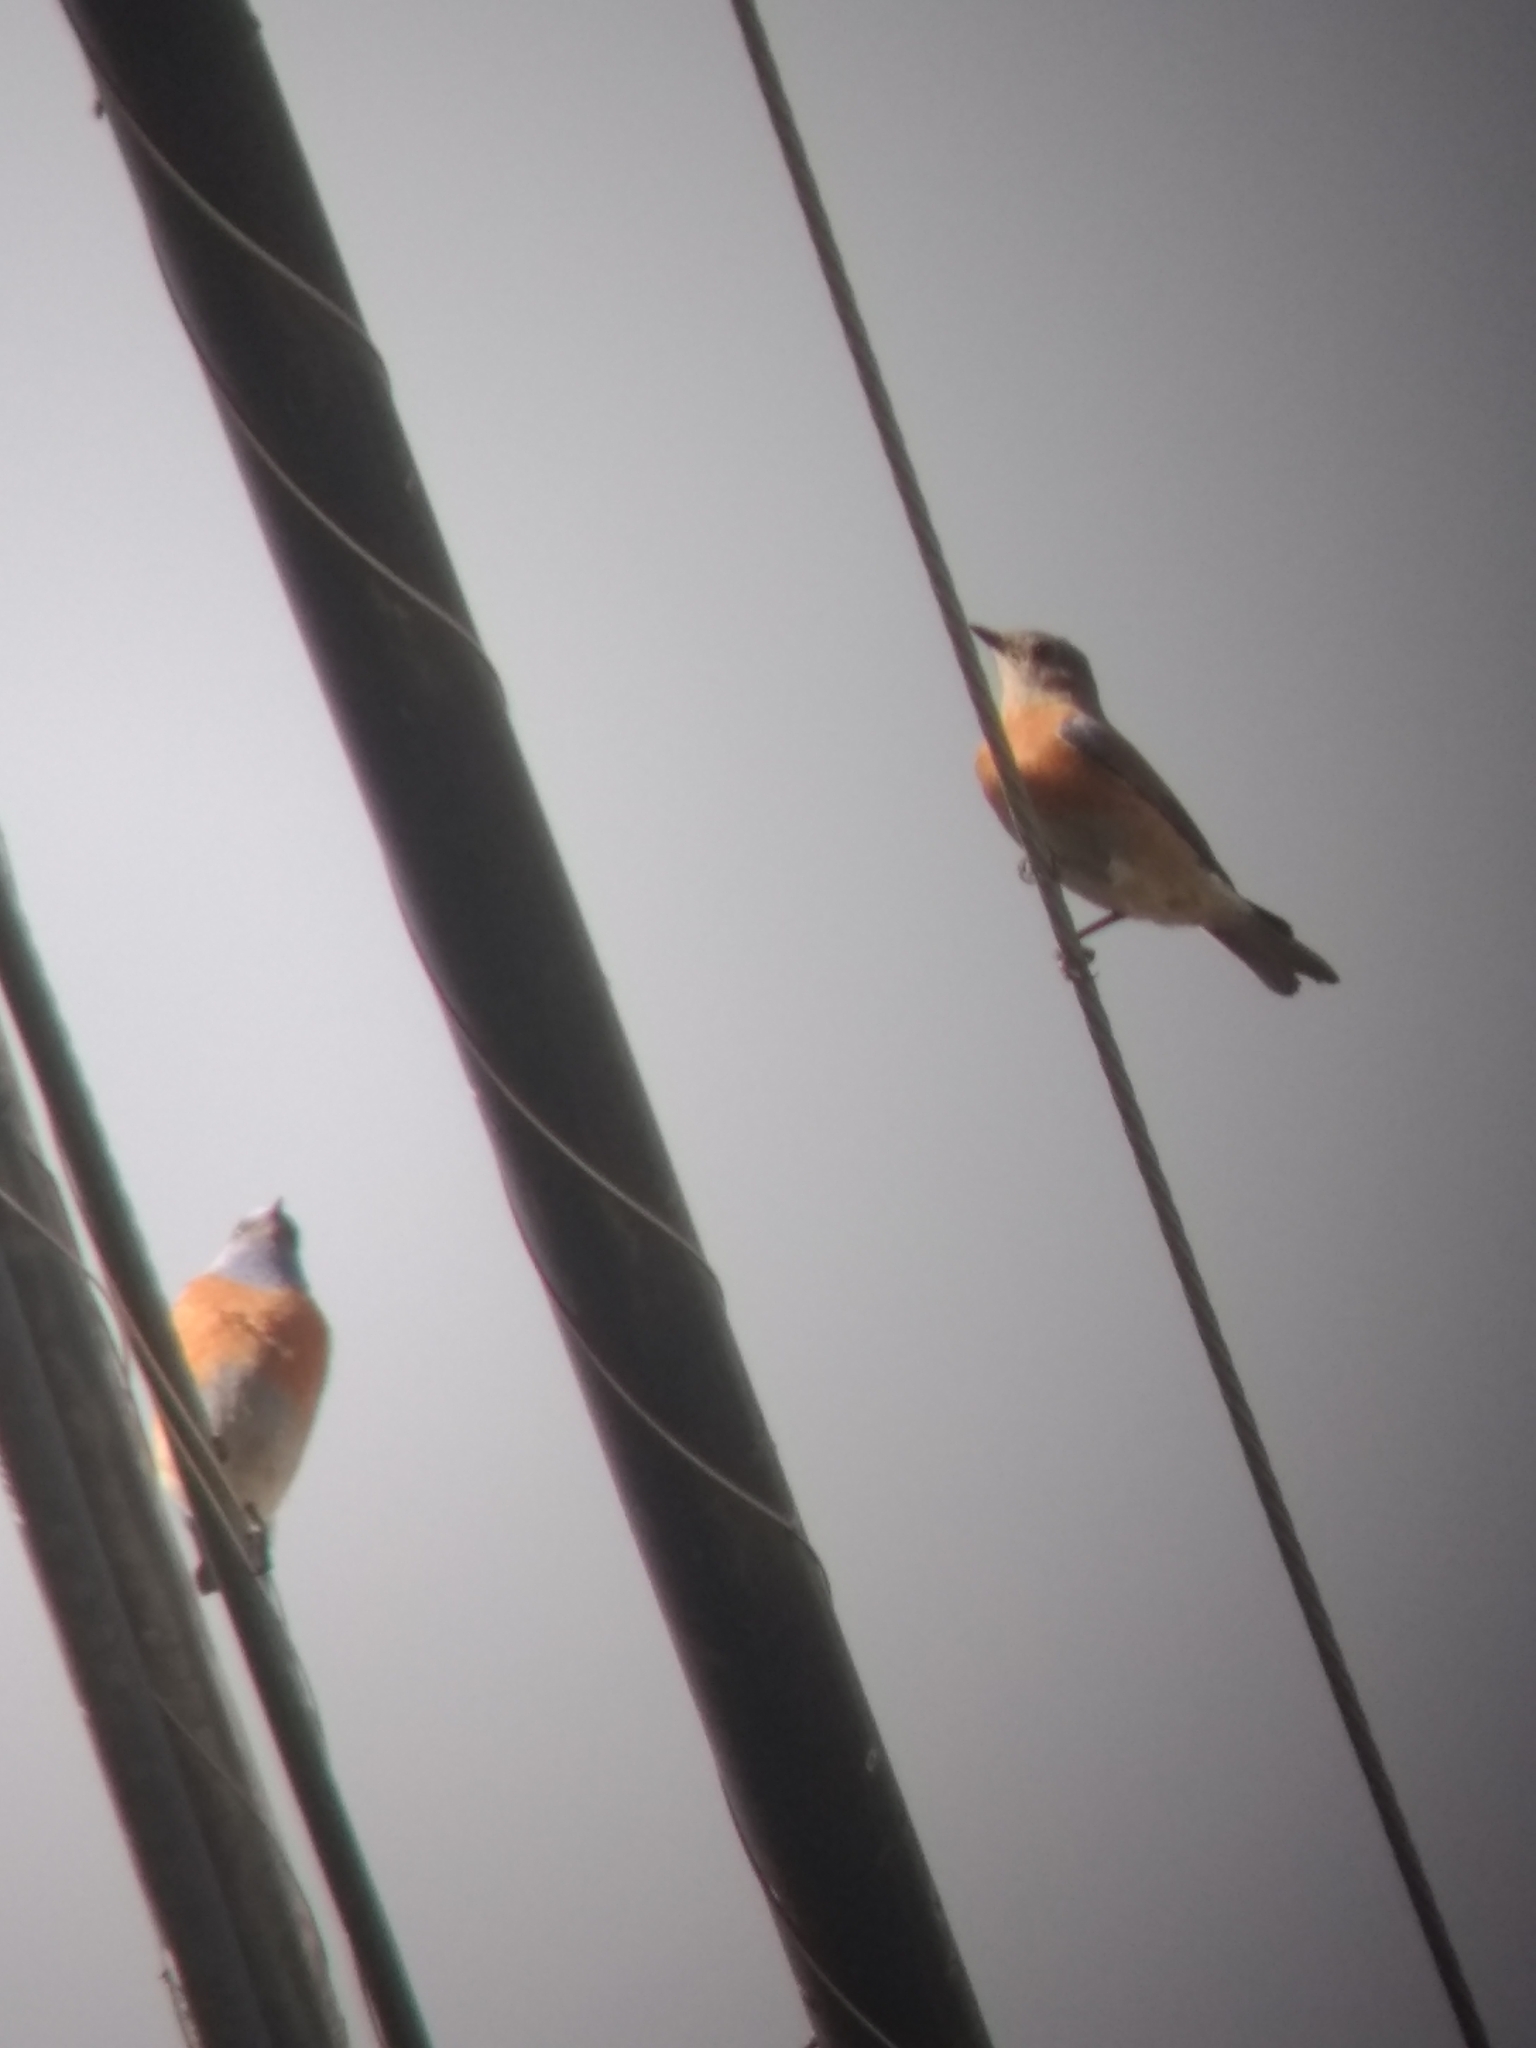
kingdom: Animalia
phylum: Chordata
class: Aves
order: Passeriformes
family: Turdidae
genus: Sialia
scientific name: Sialia mexicana
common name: Western bluebird
